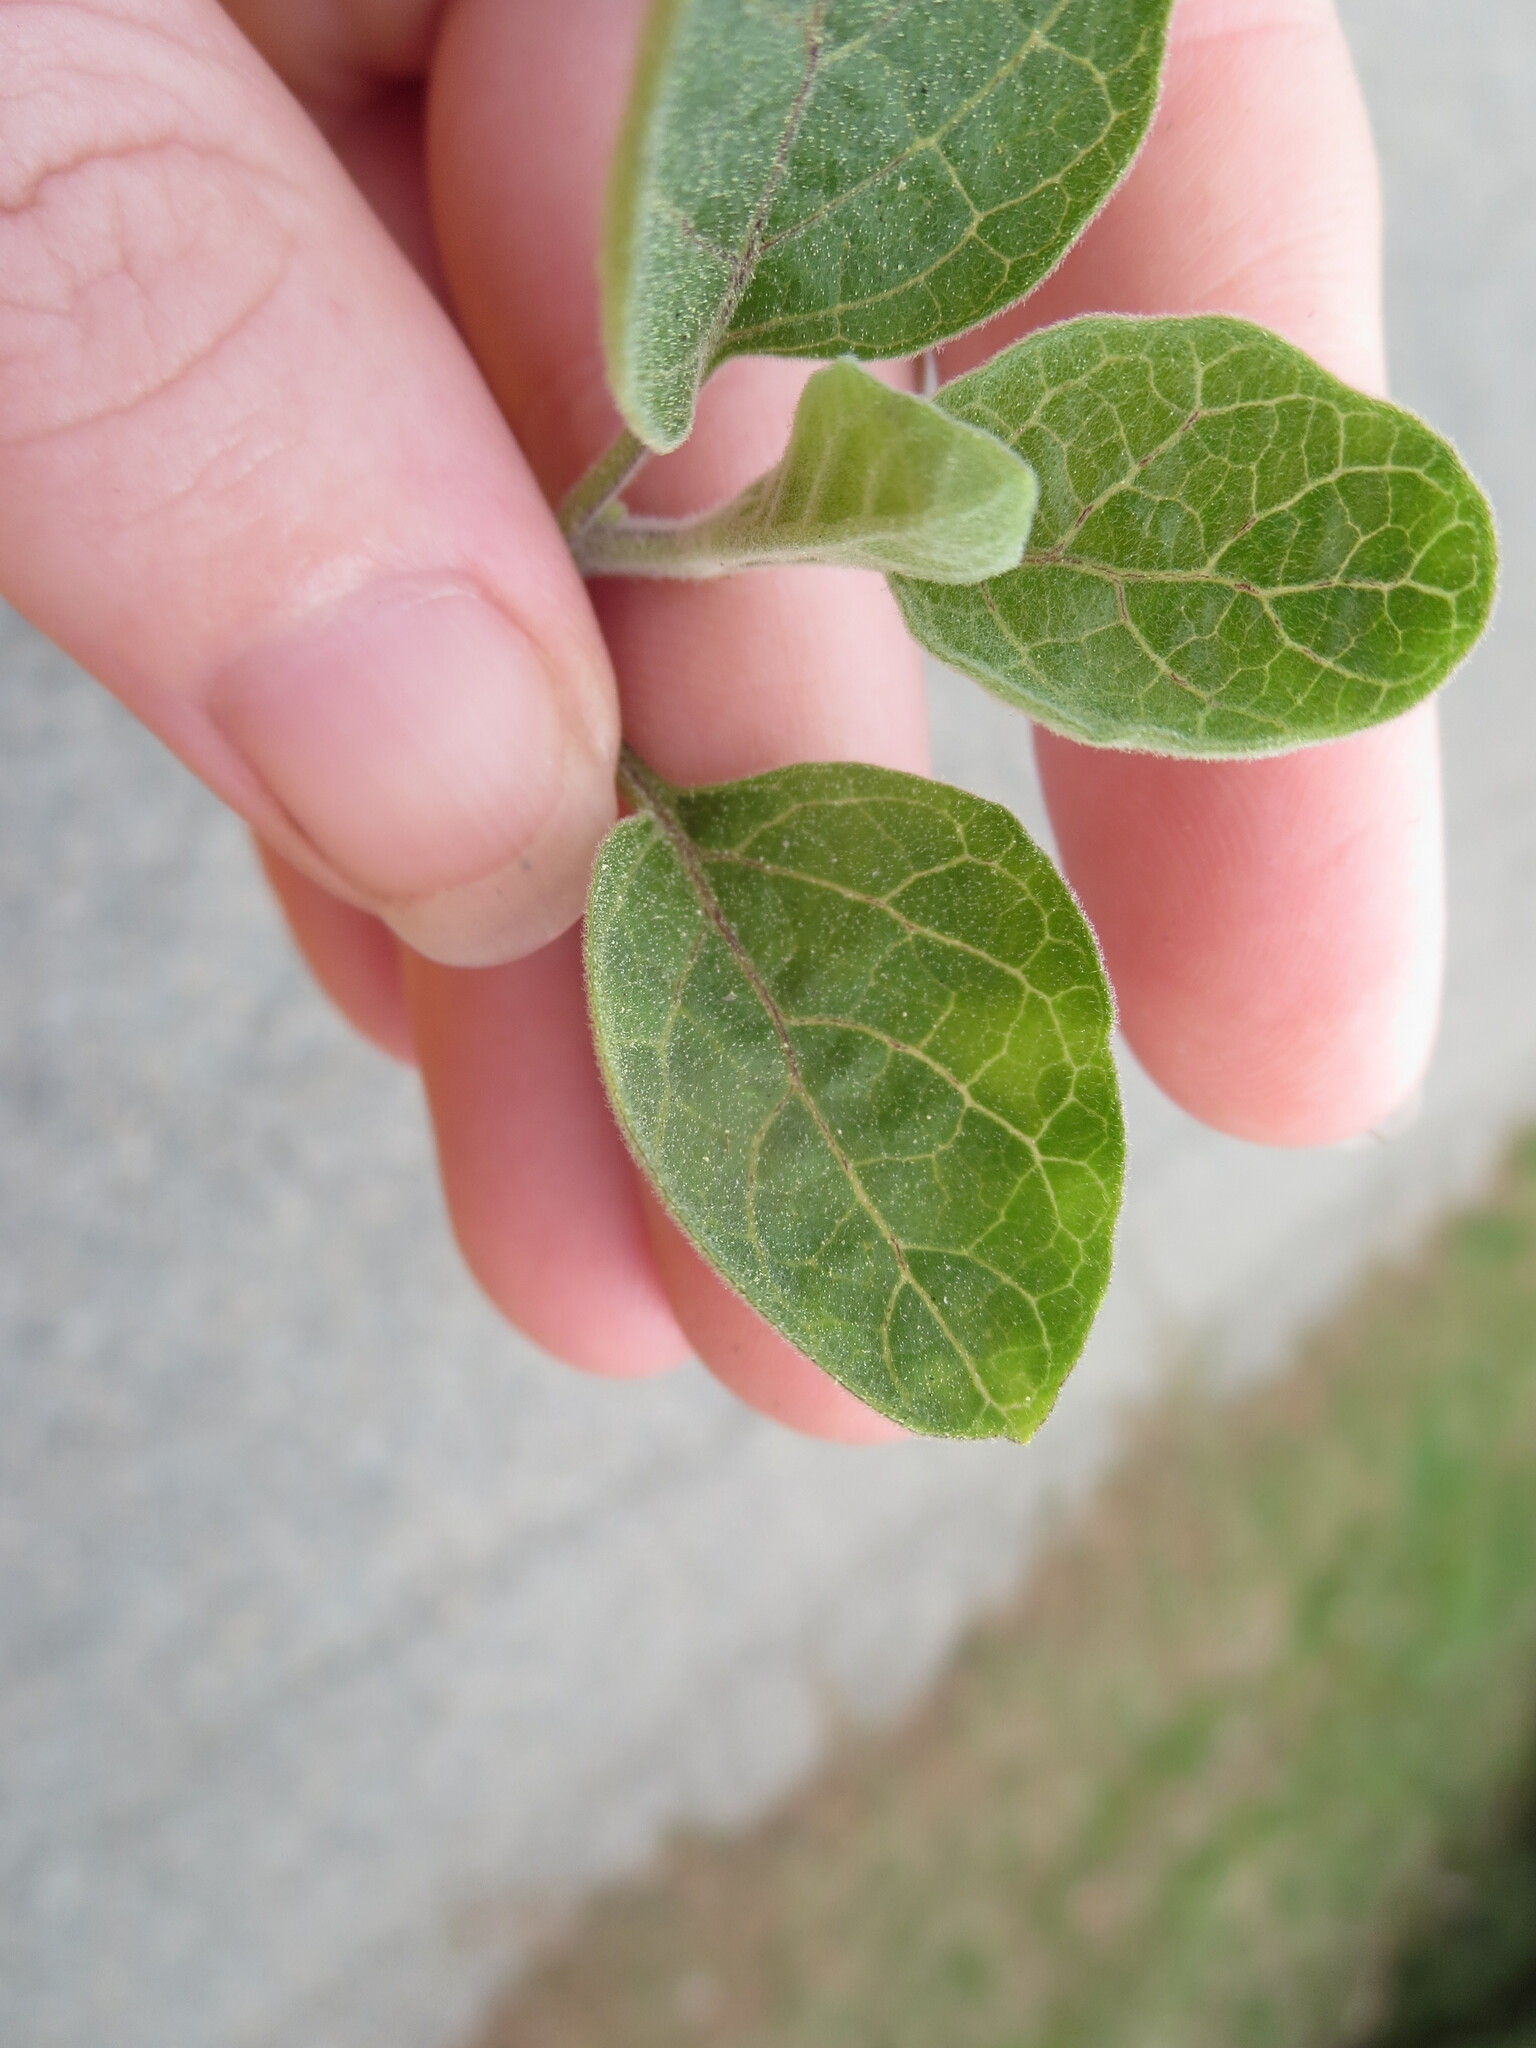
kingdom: Plantae
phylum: Tracheophyta
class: Magnoliopsida
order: Solanales
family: Solanaceae
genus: Physalis
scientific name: Physalis walteri
